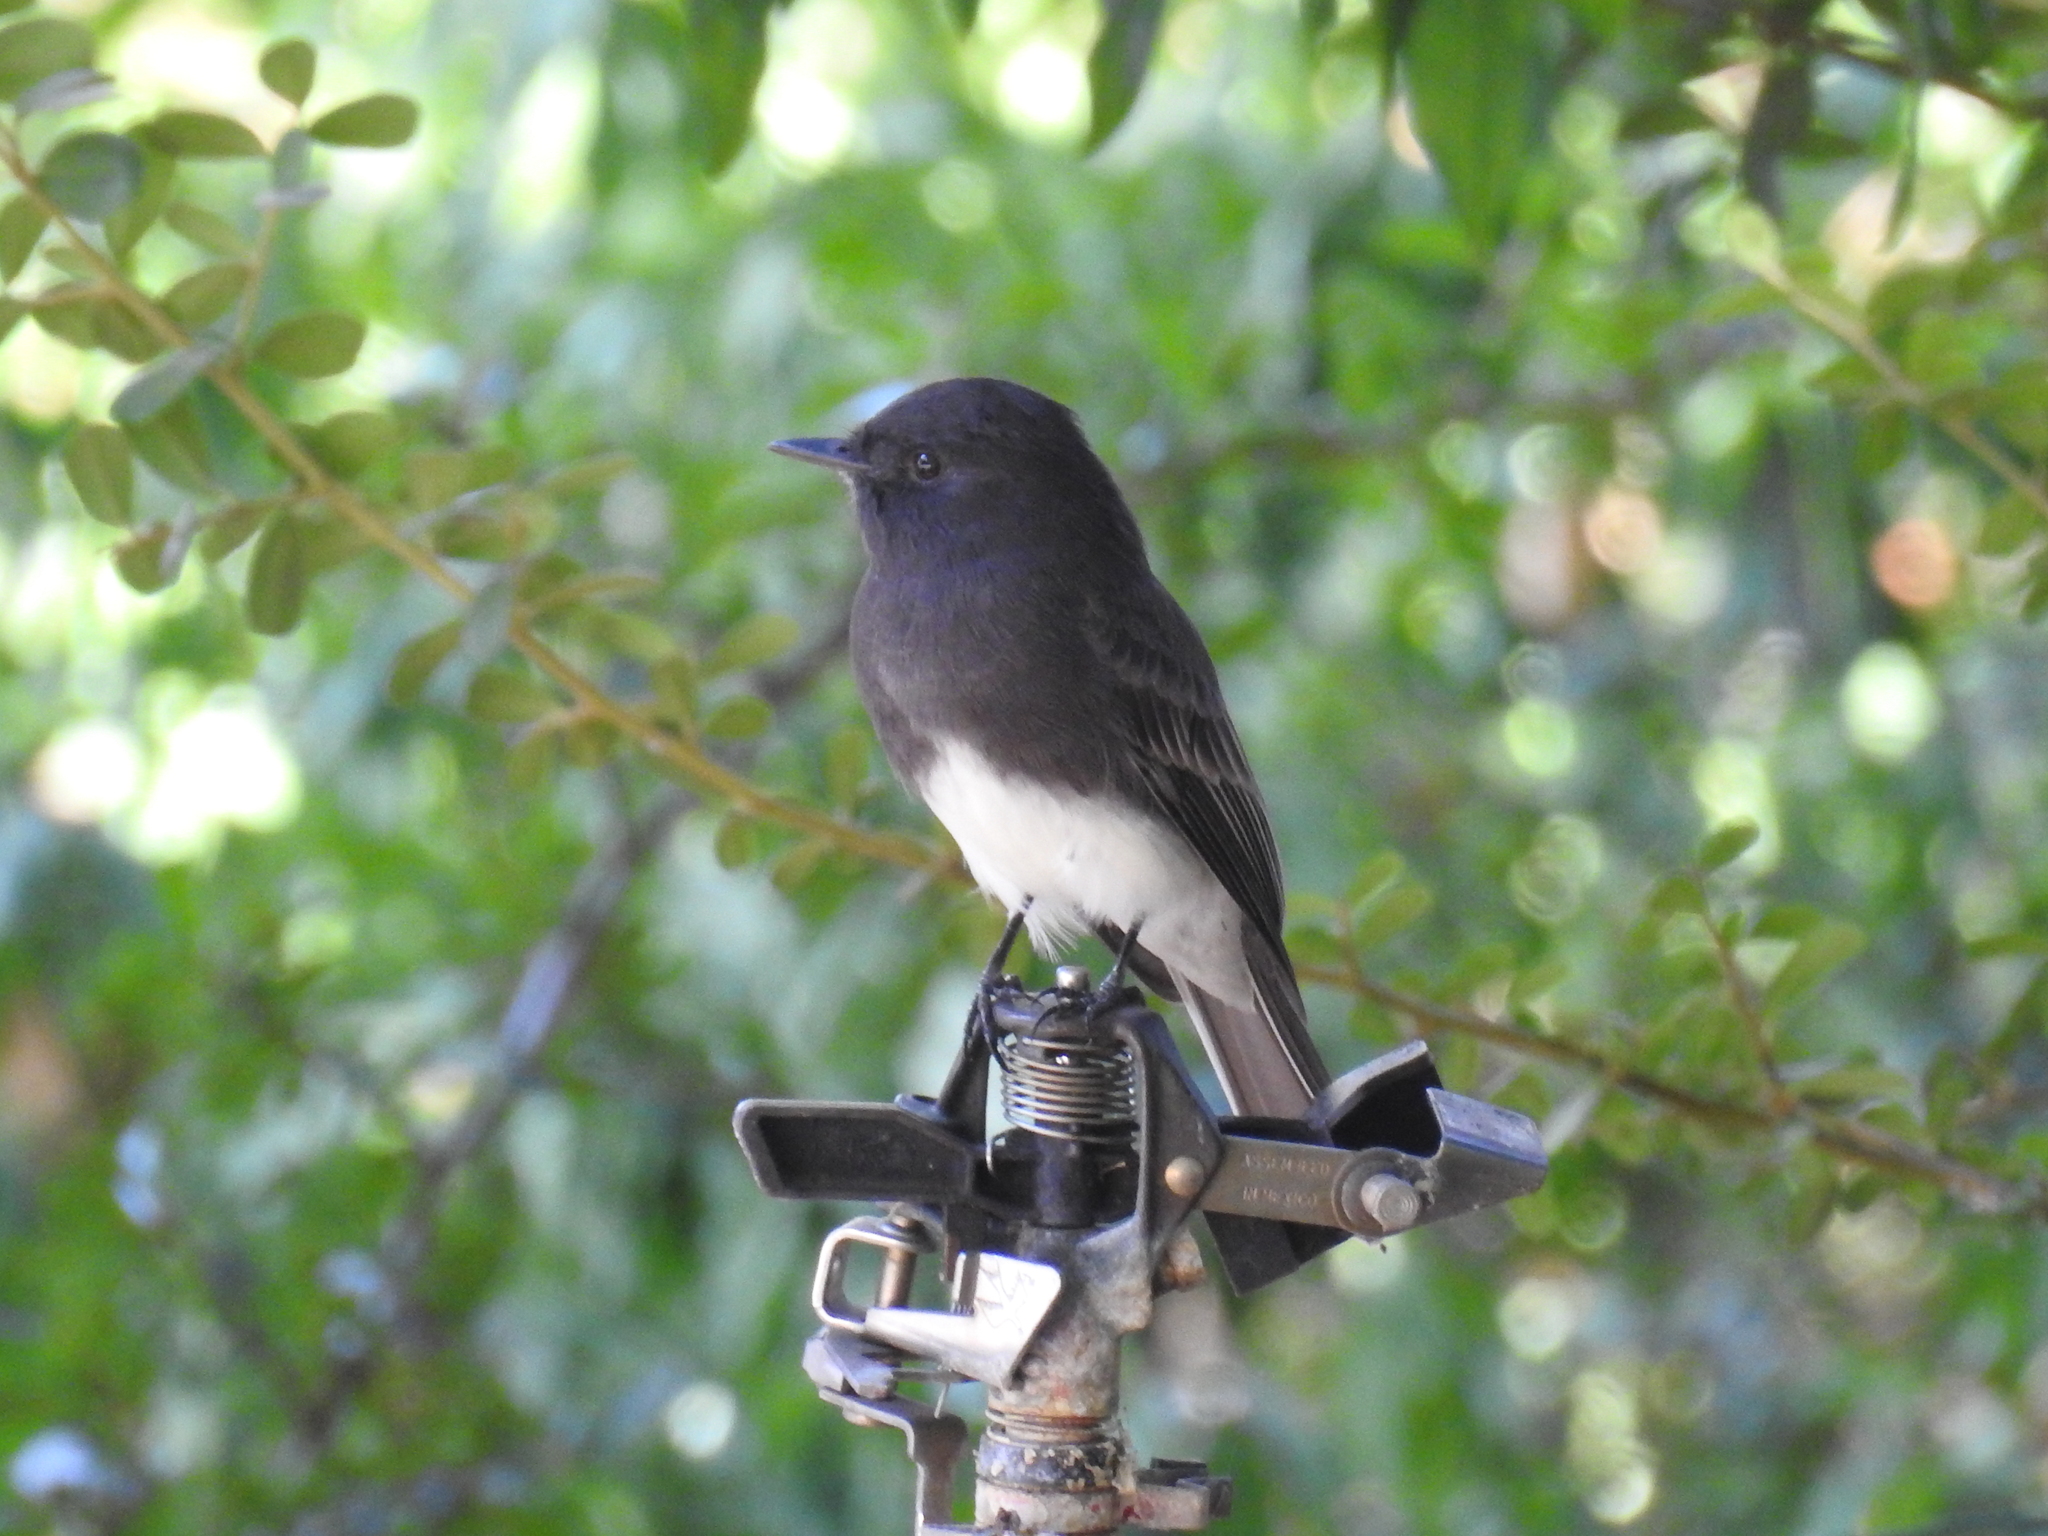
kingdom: Animalia
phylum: Chordata
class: Aves
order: Passeriformes
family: Tyrannidae
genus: Sayornis
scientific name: Sayornis nigricans
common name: Black phoebe
